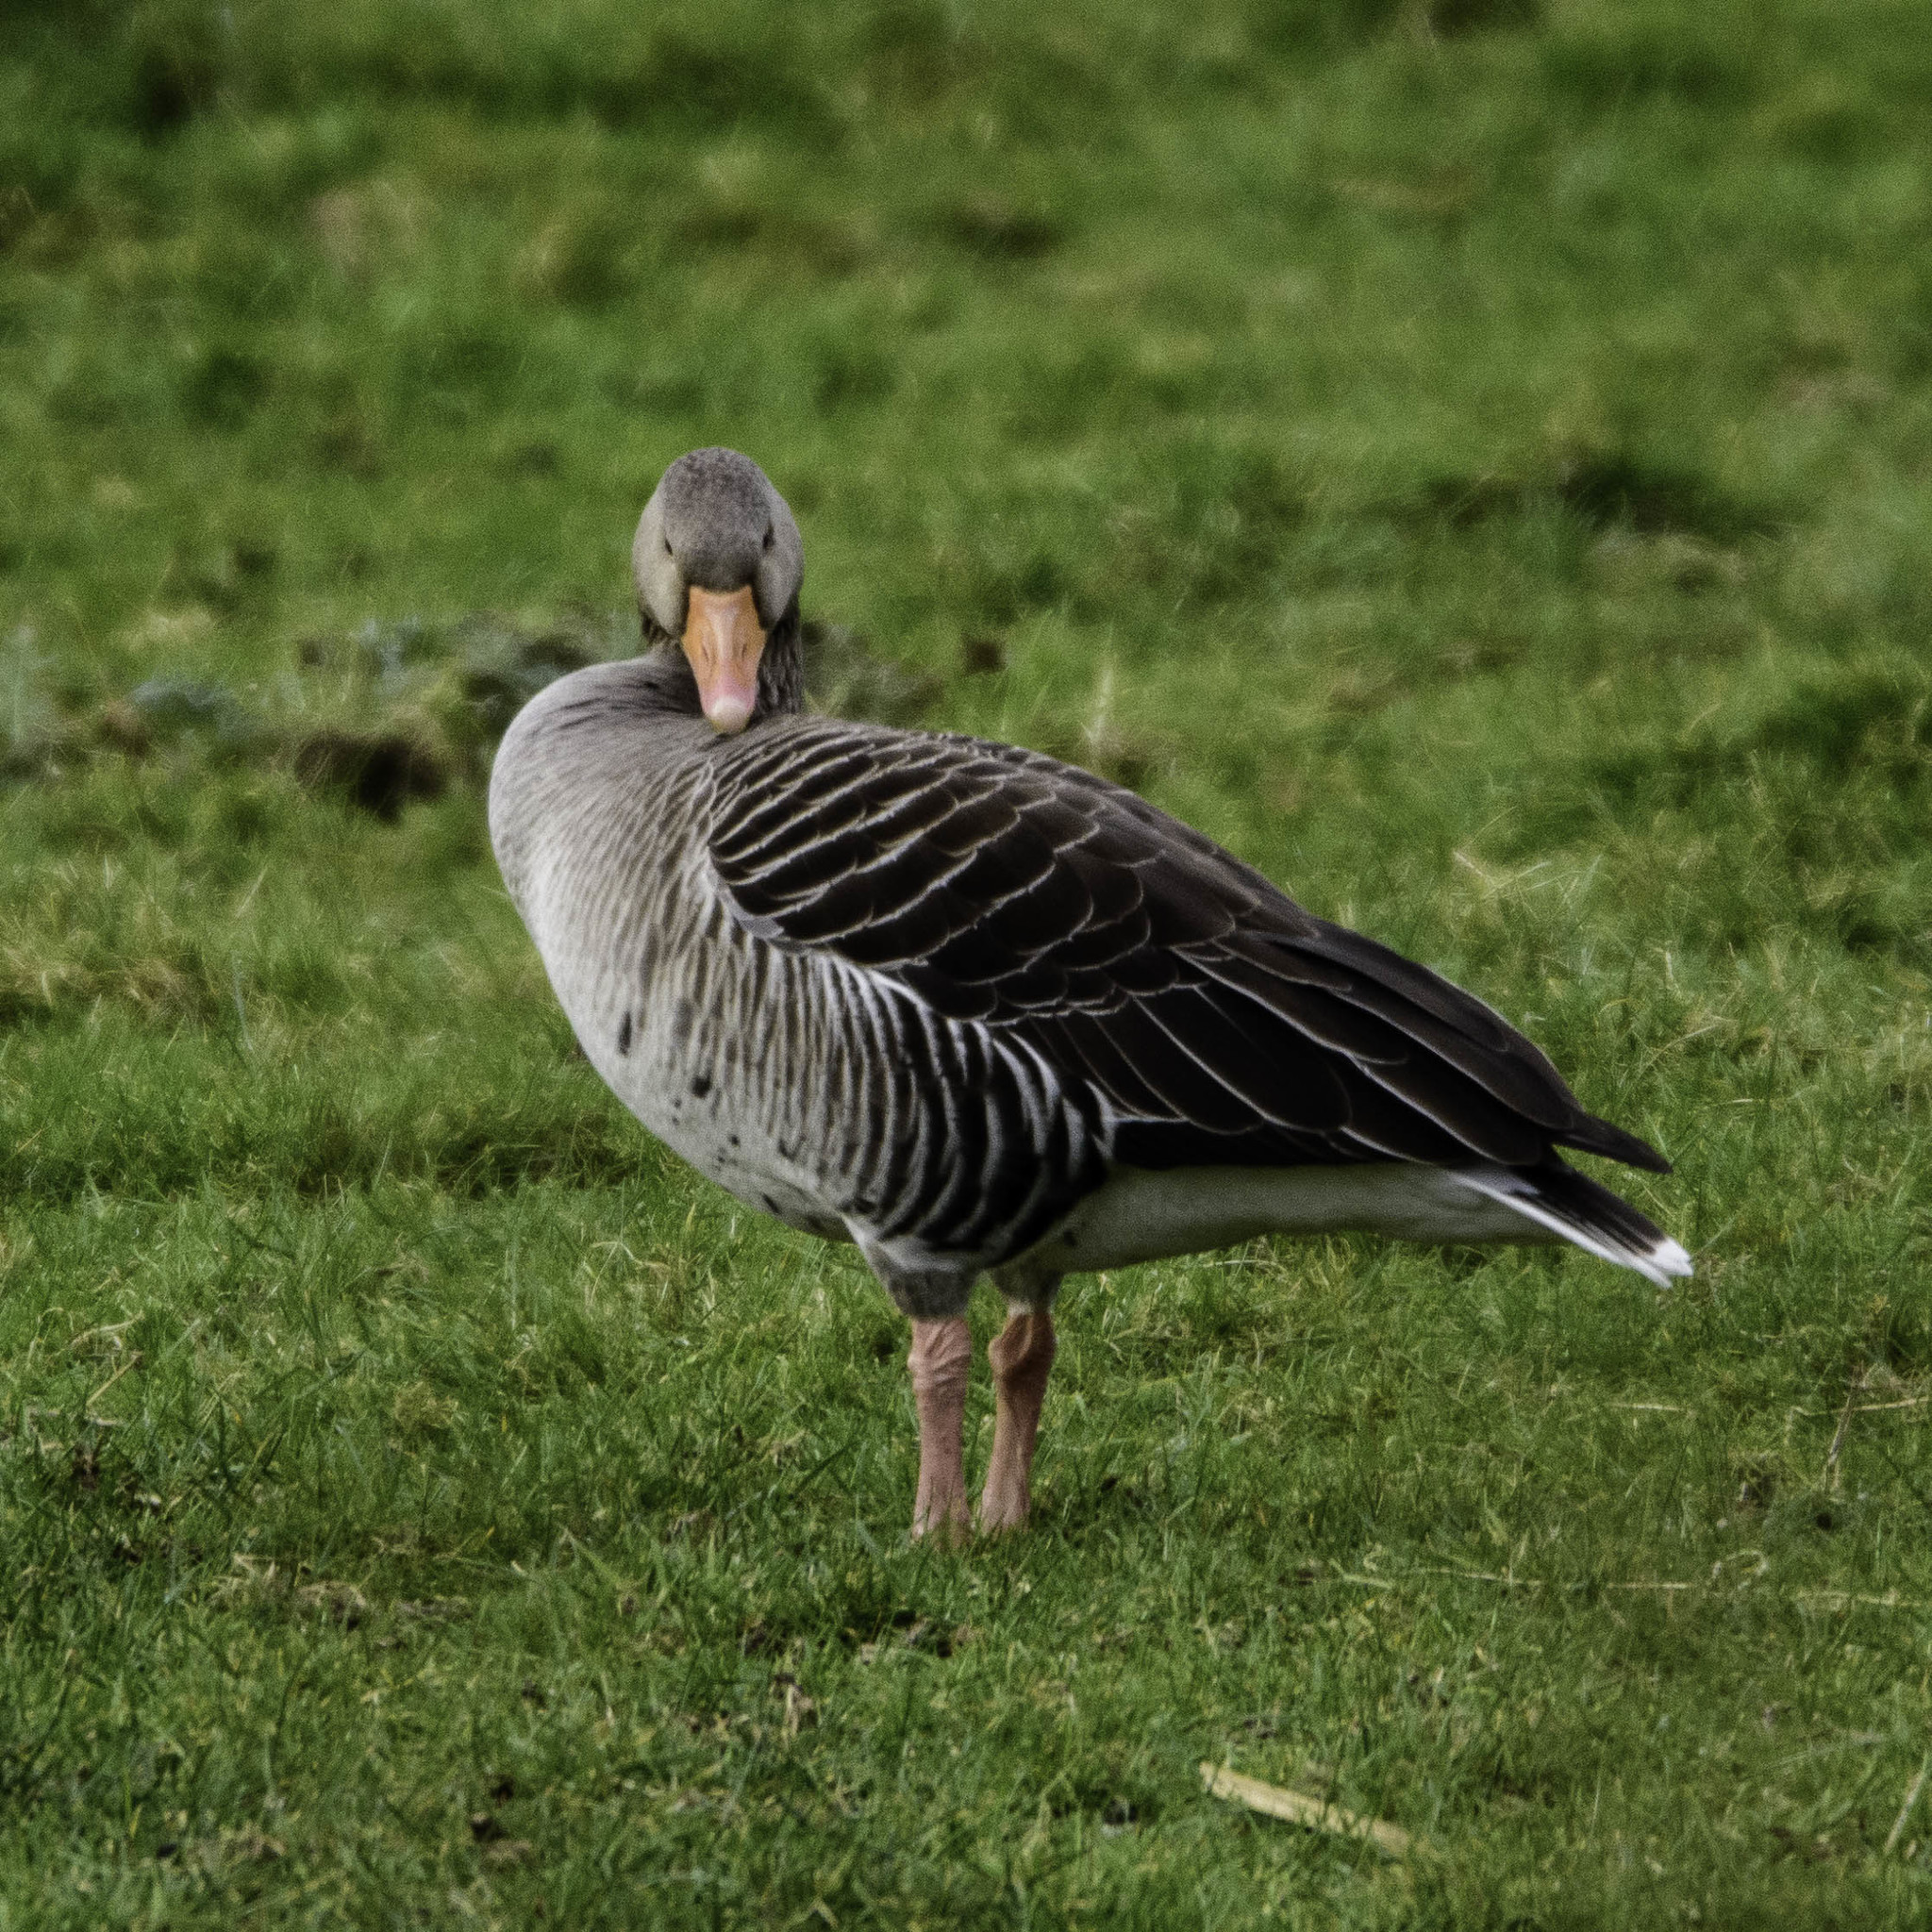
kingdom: Animalia
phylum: Chordata
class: Aves
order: Anseriformes
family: Anatidae
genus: Anser
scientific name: Anser anser
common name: Greylag goose
